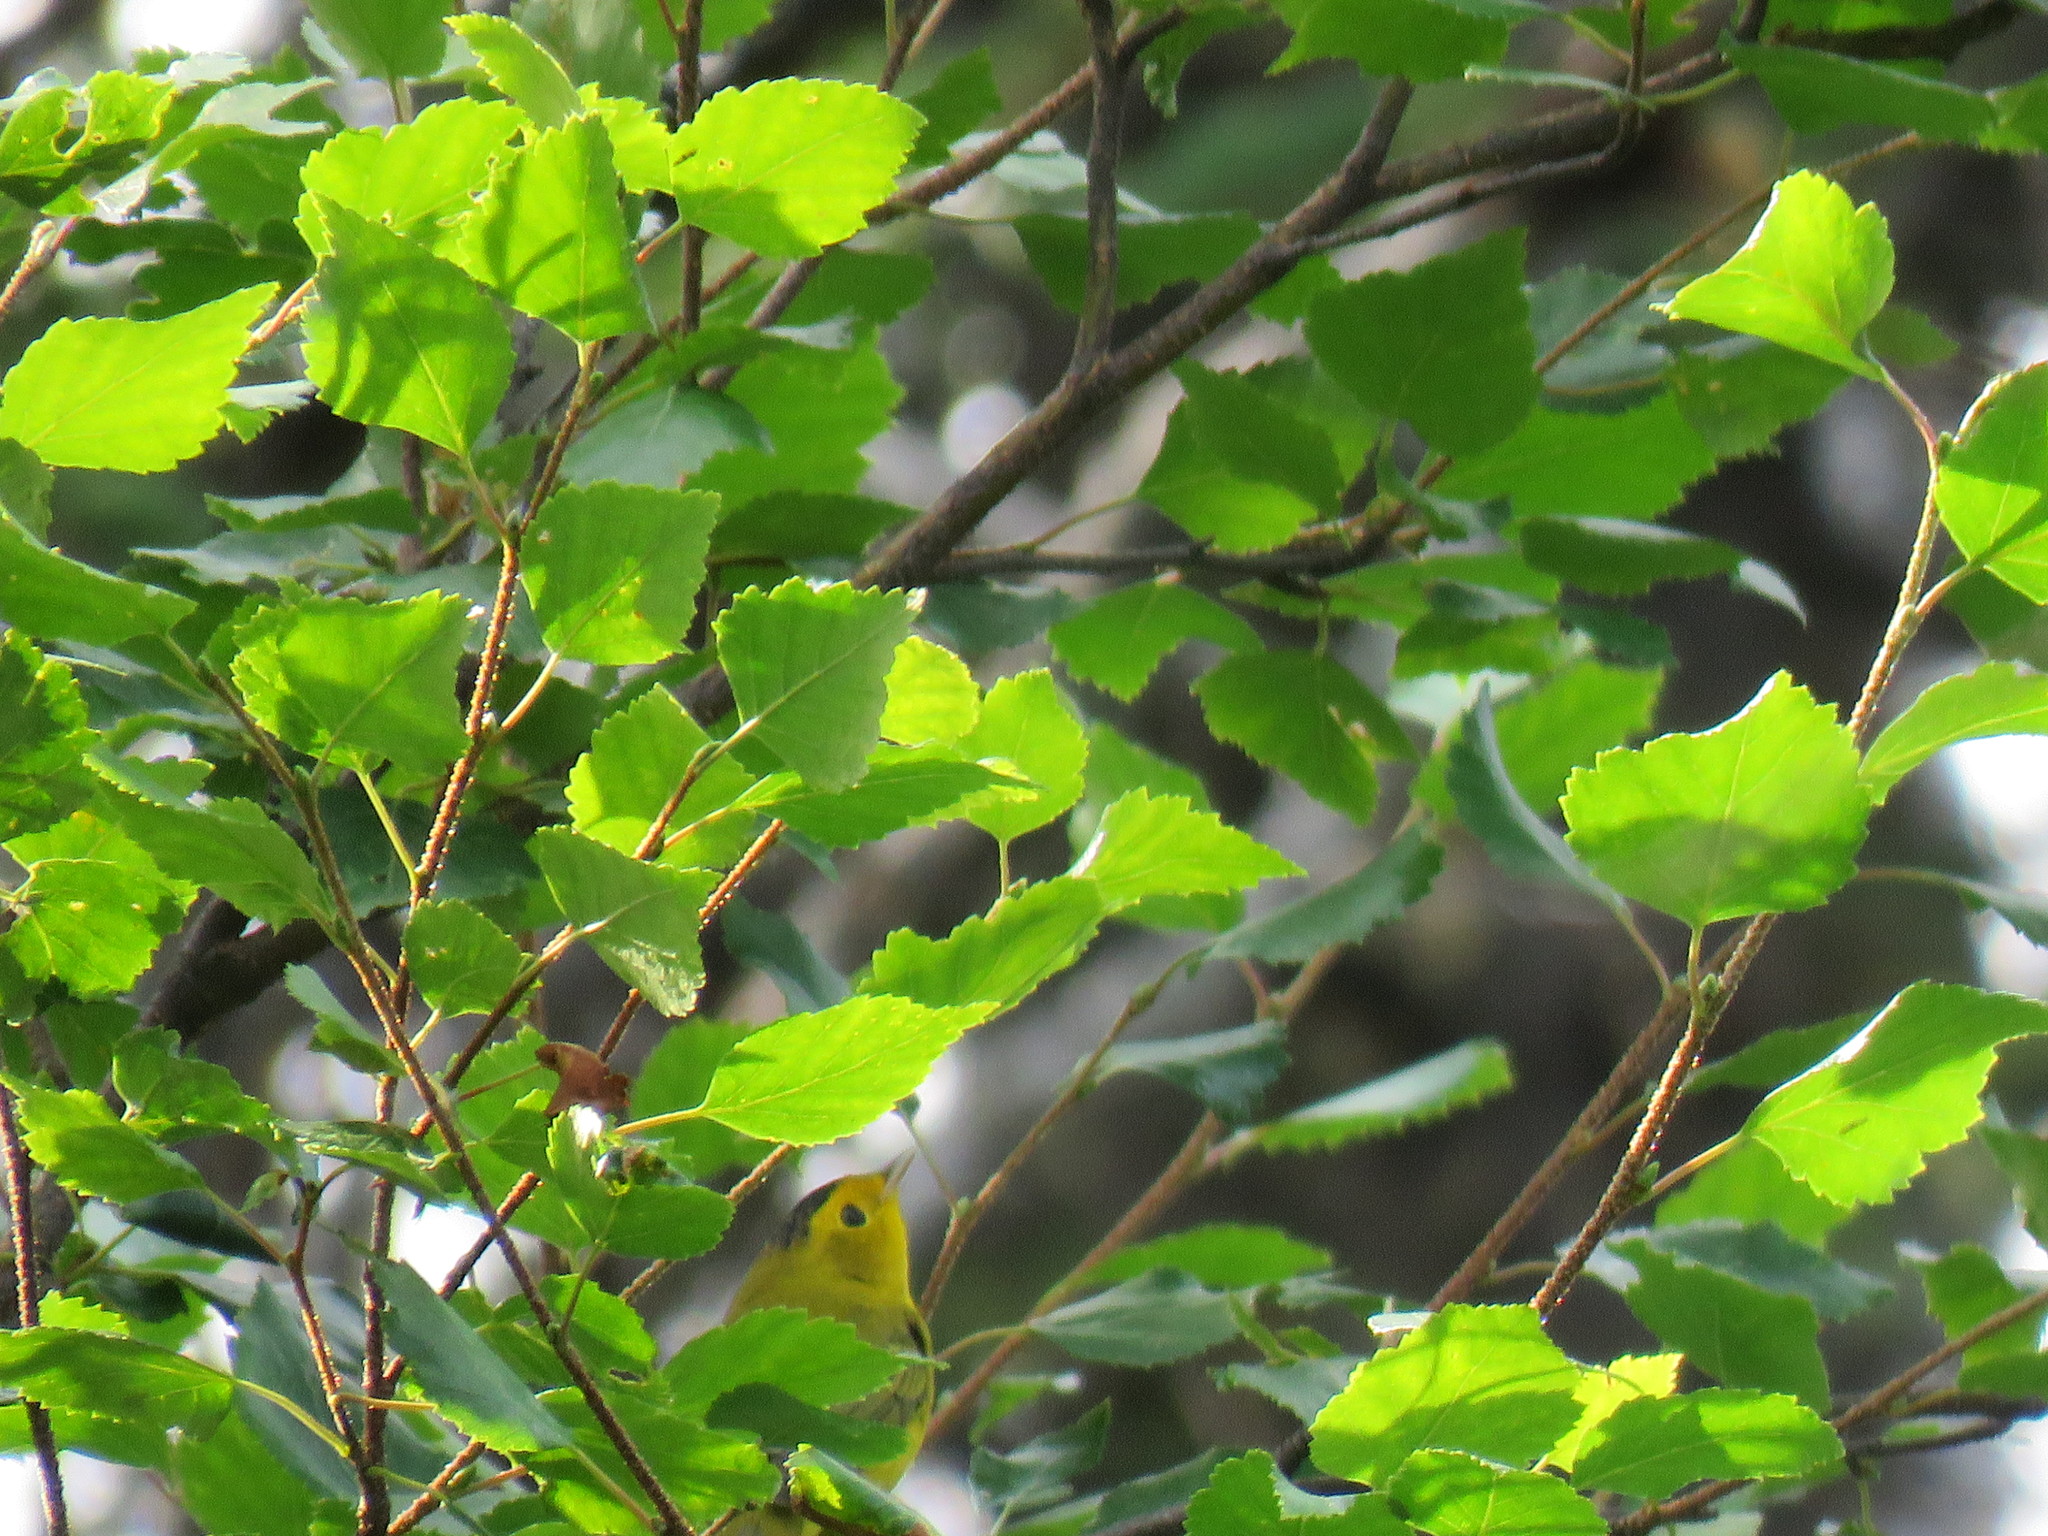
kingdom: Animalia
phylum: Chordata
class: Aves
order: Passeriformes
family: Parulidae
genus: Cardellina
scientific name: Cardellina pusilla
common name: Wilson's warbler
